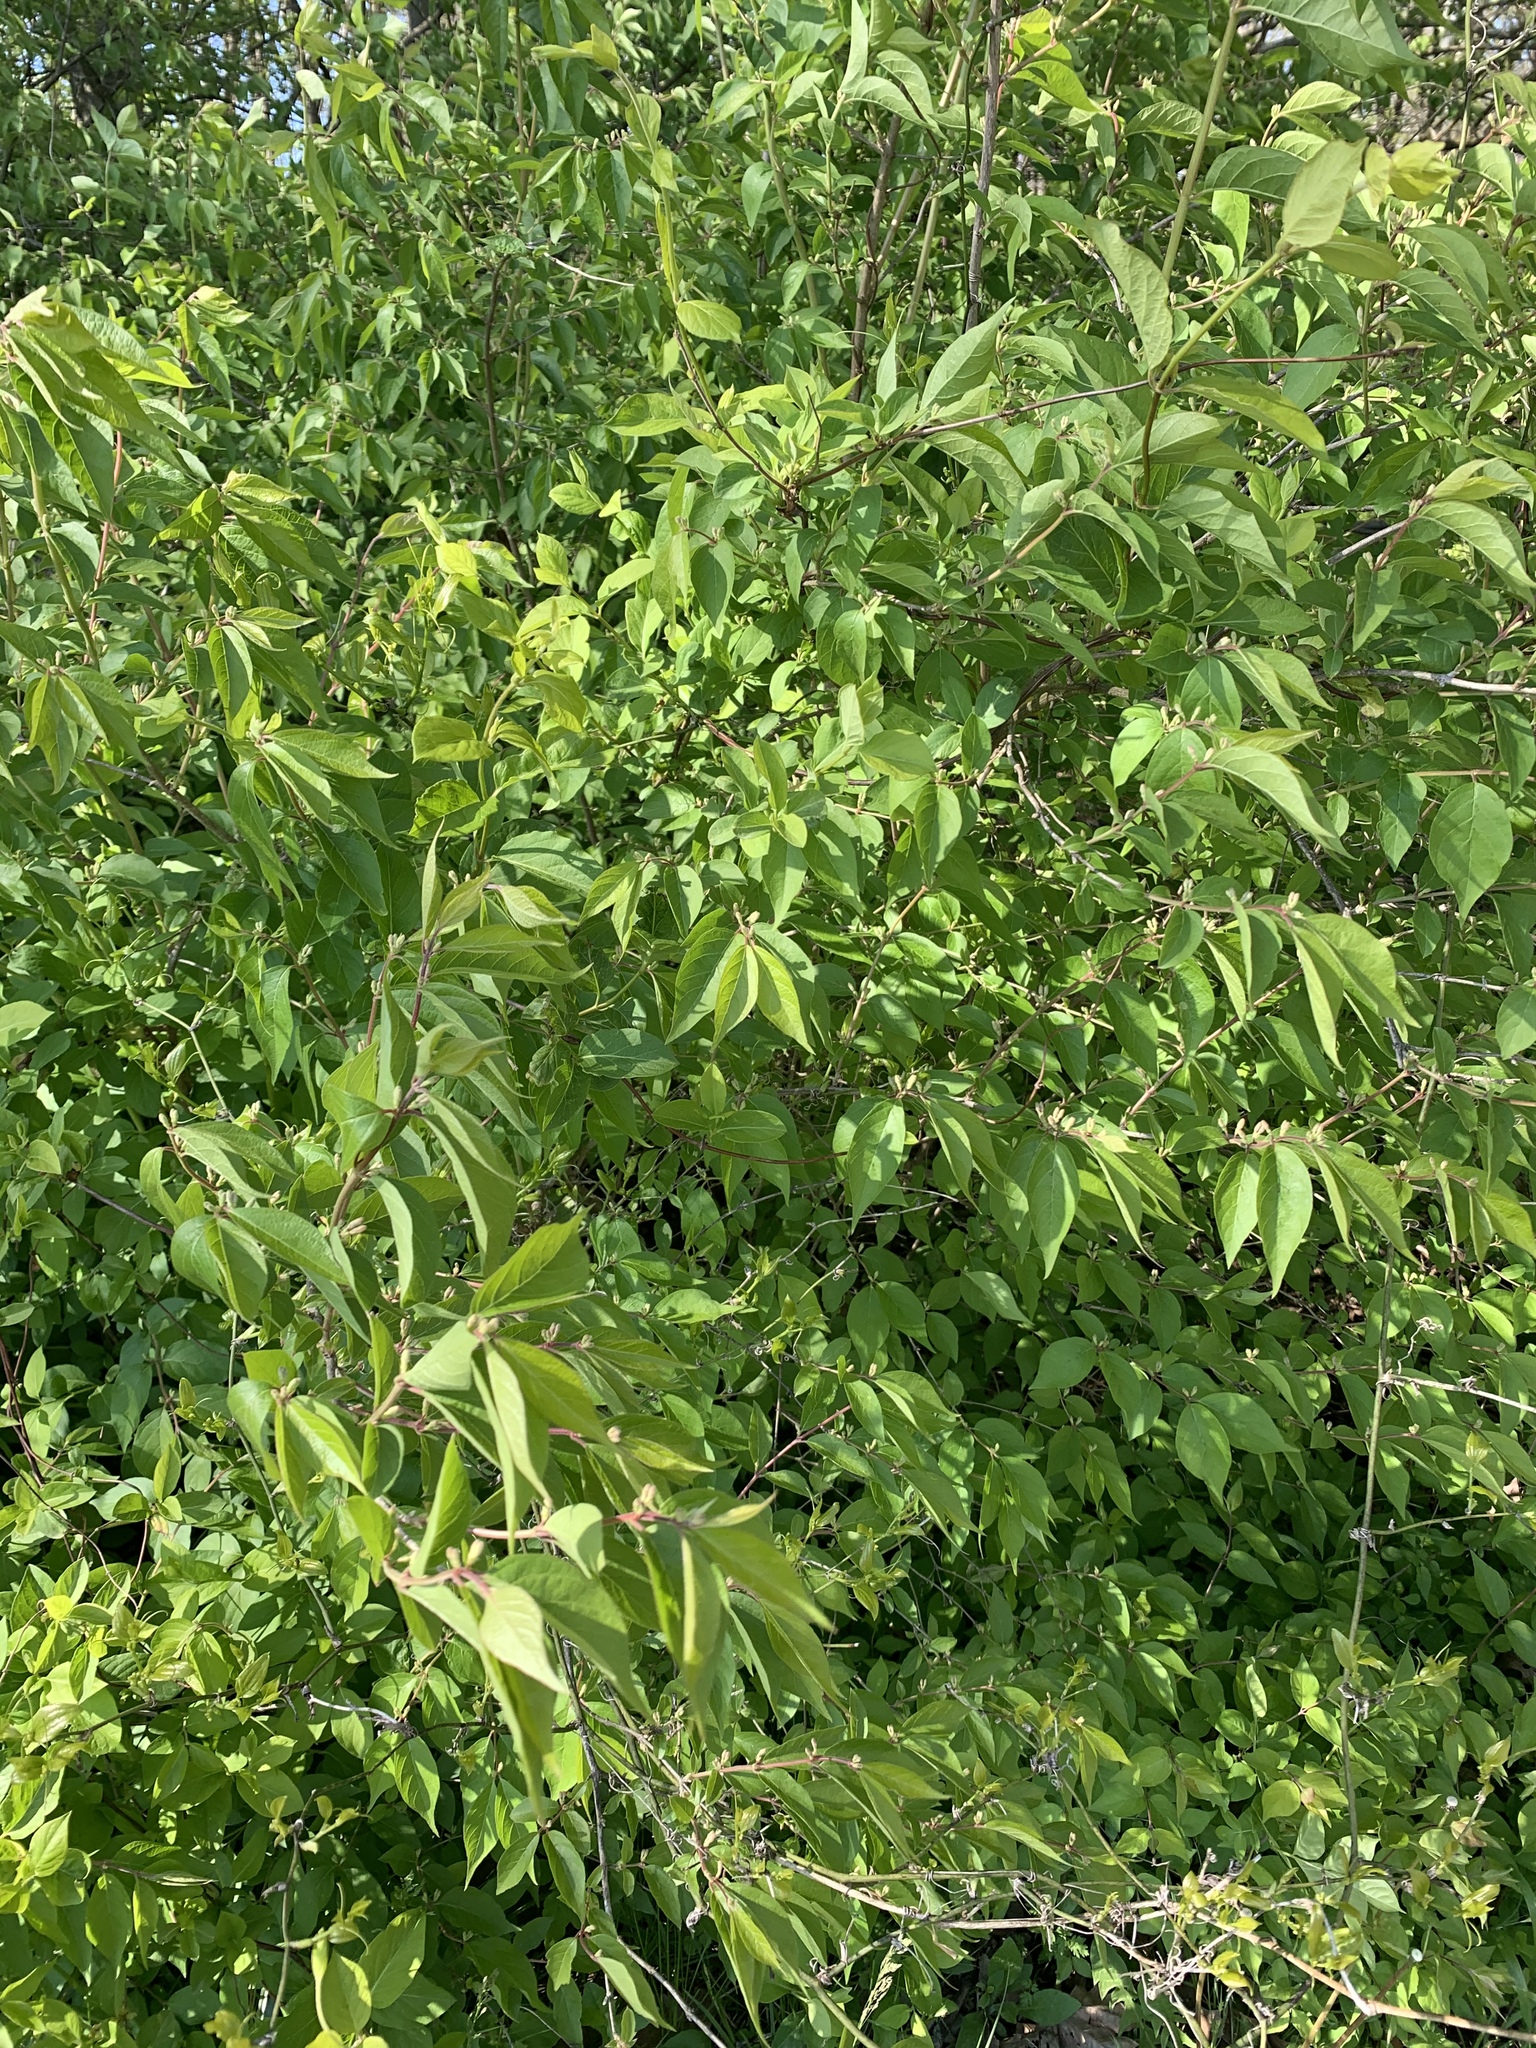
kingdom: Plantae
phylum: Tracheophyta
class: Magnoliopsida
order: Dipsacales
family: Caprifoliaceae
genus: Lonicera
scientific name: Lonicera maackii
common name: Amur honeysuckle
